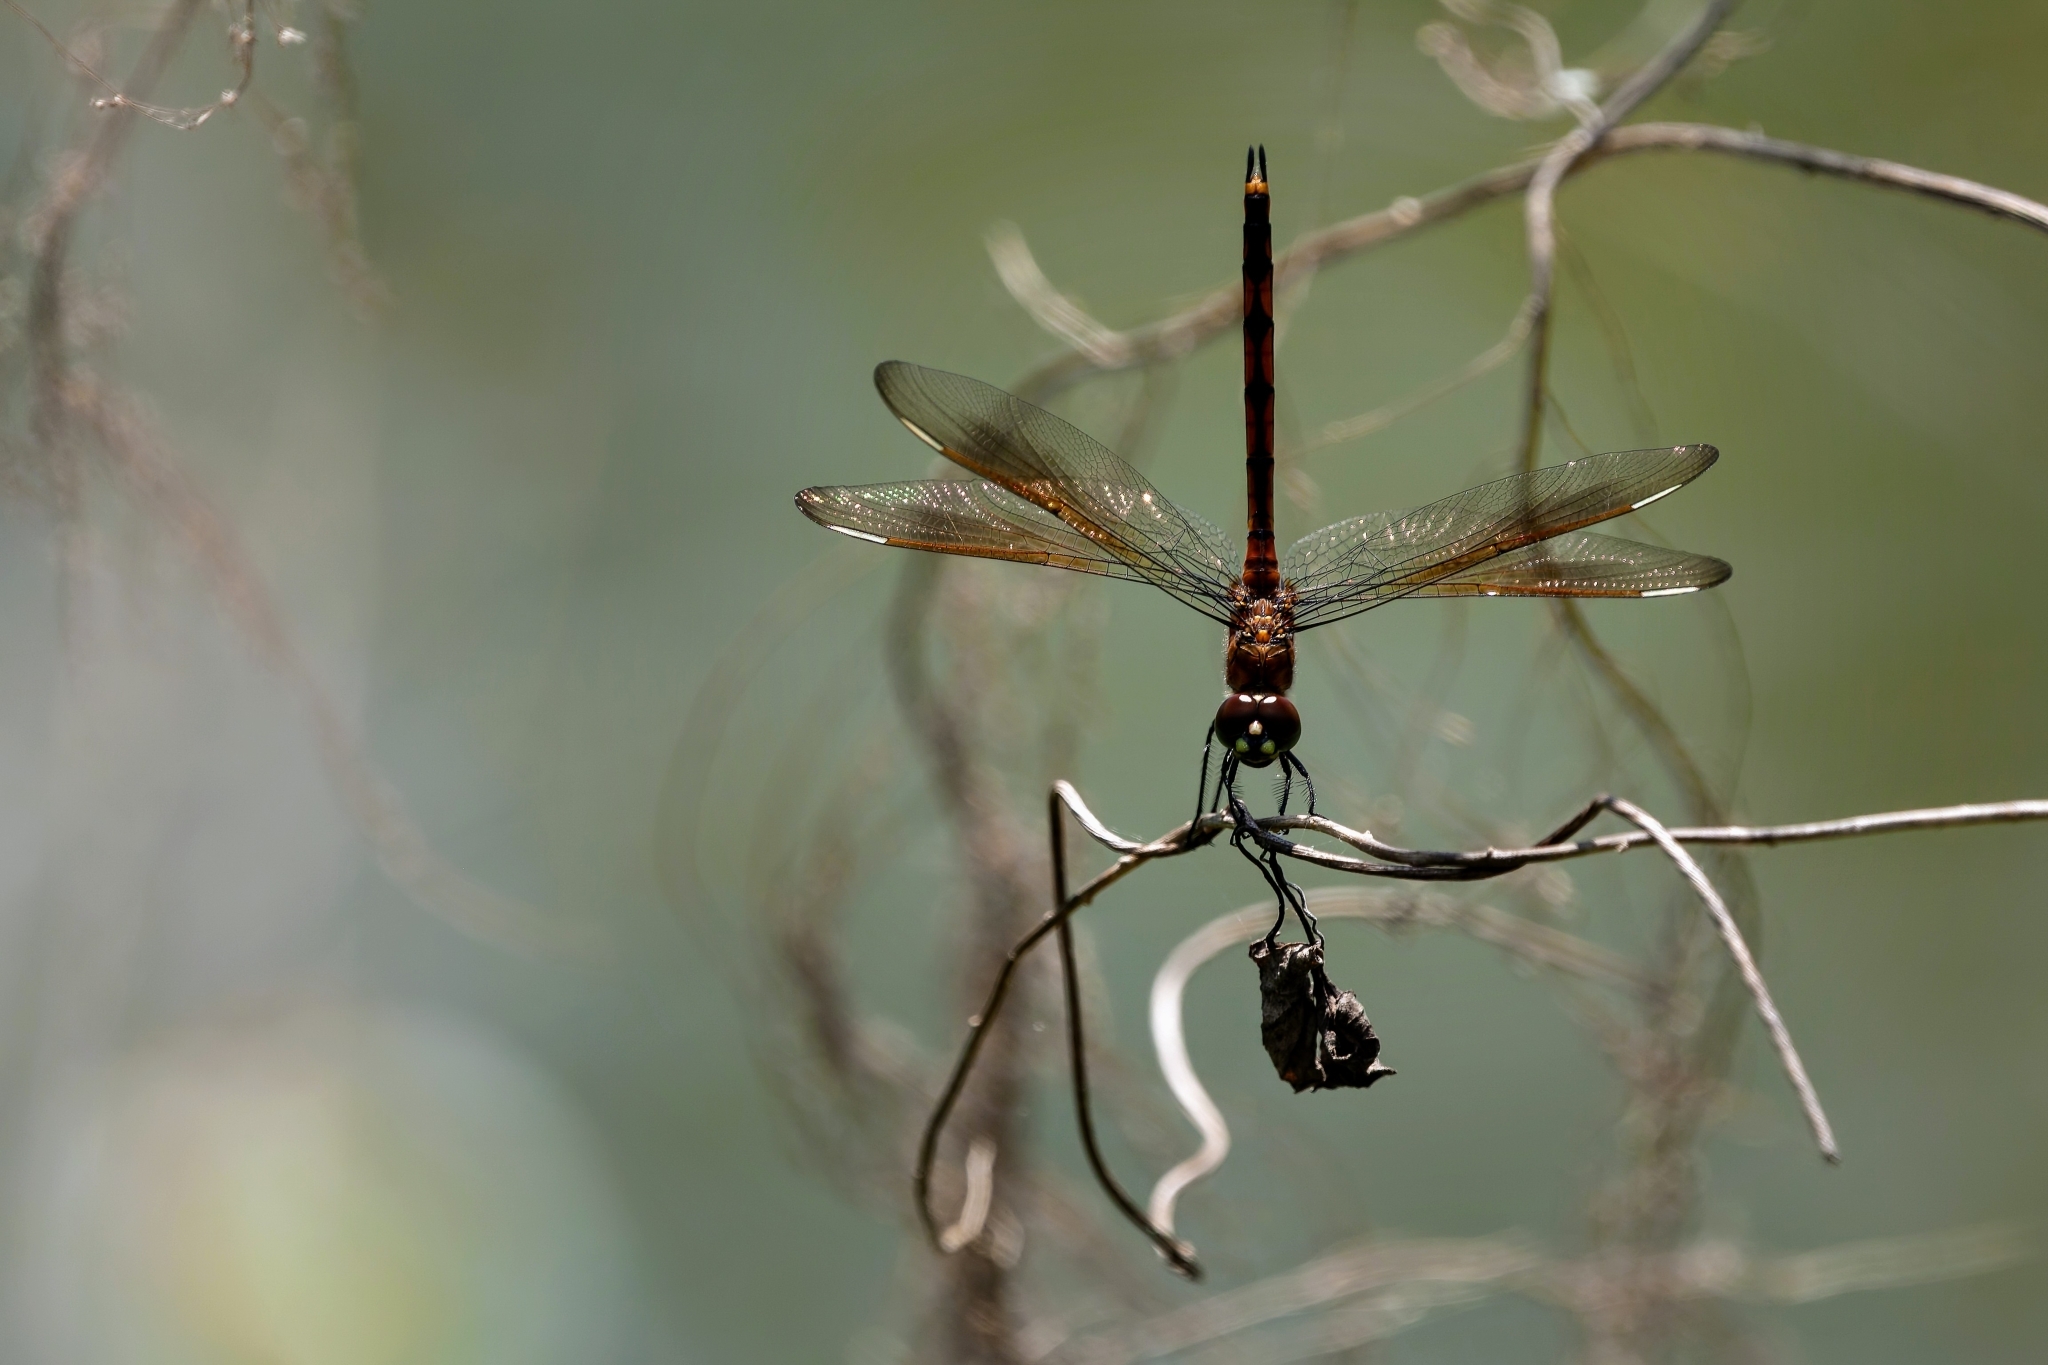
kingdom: Animalia
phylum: Arthropoda
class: Insecta
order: Odonata
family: Libellulidae
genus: Brachymesia
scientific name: Brachymesia gravida
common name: Four-spotted pennant
